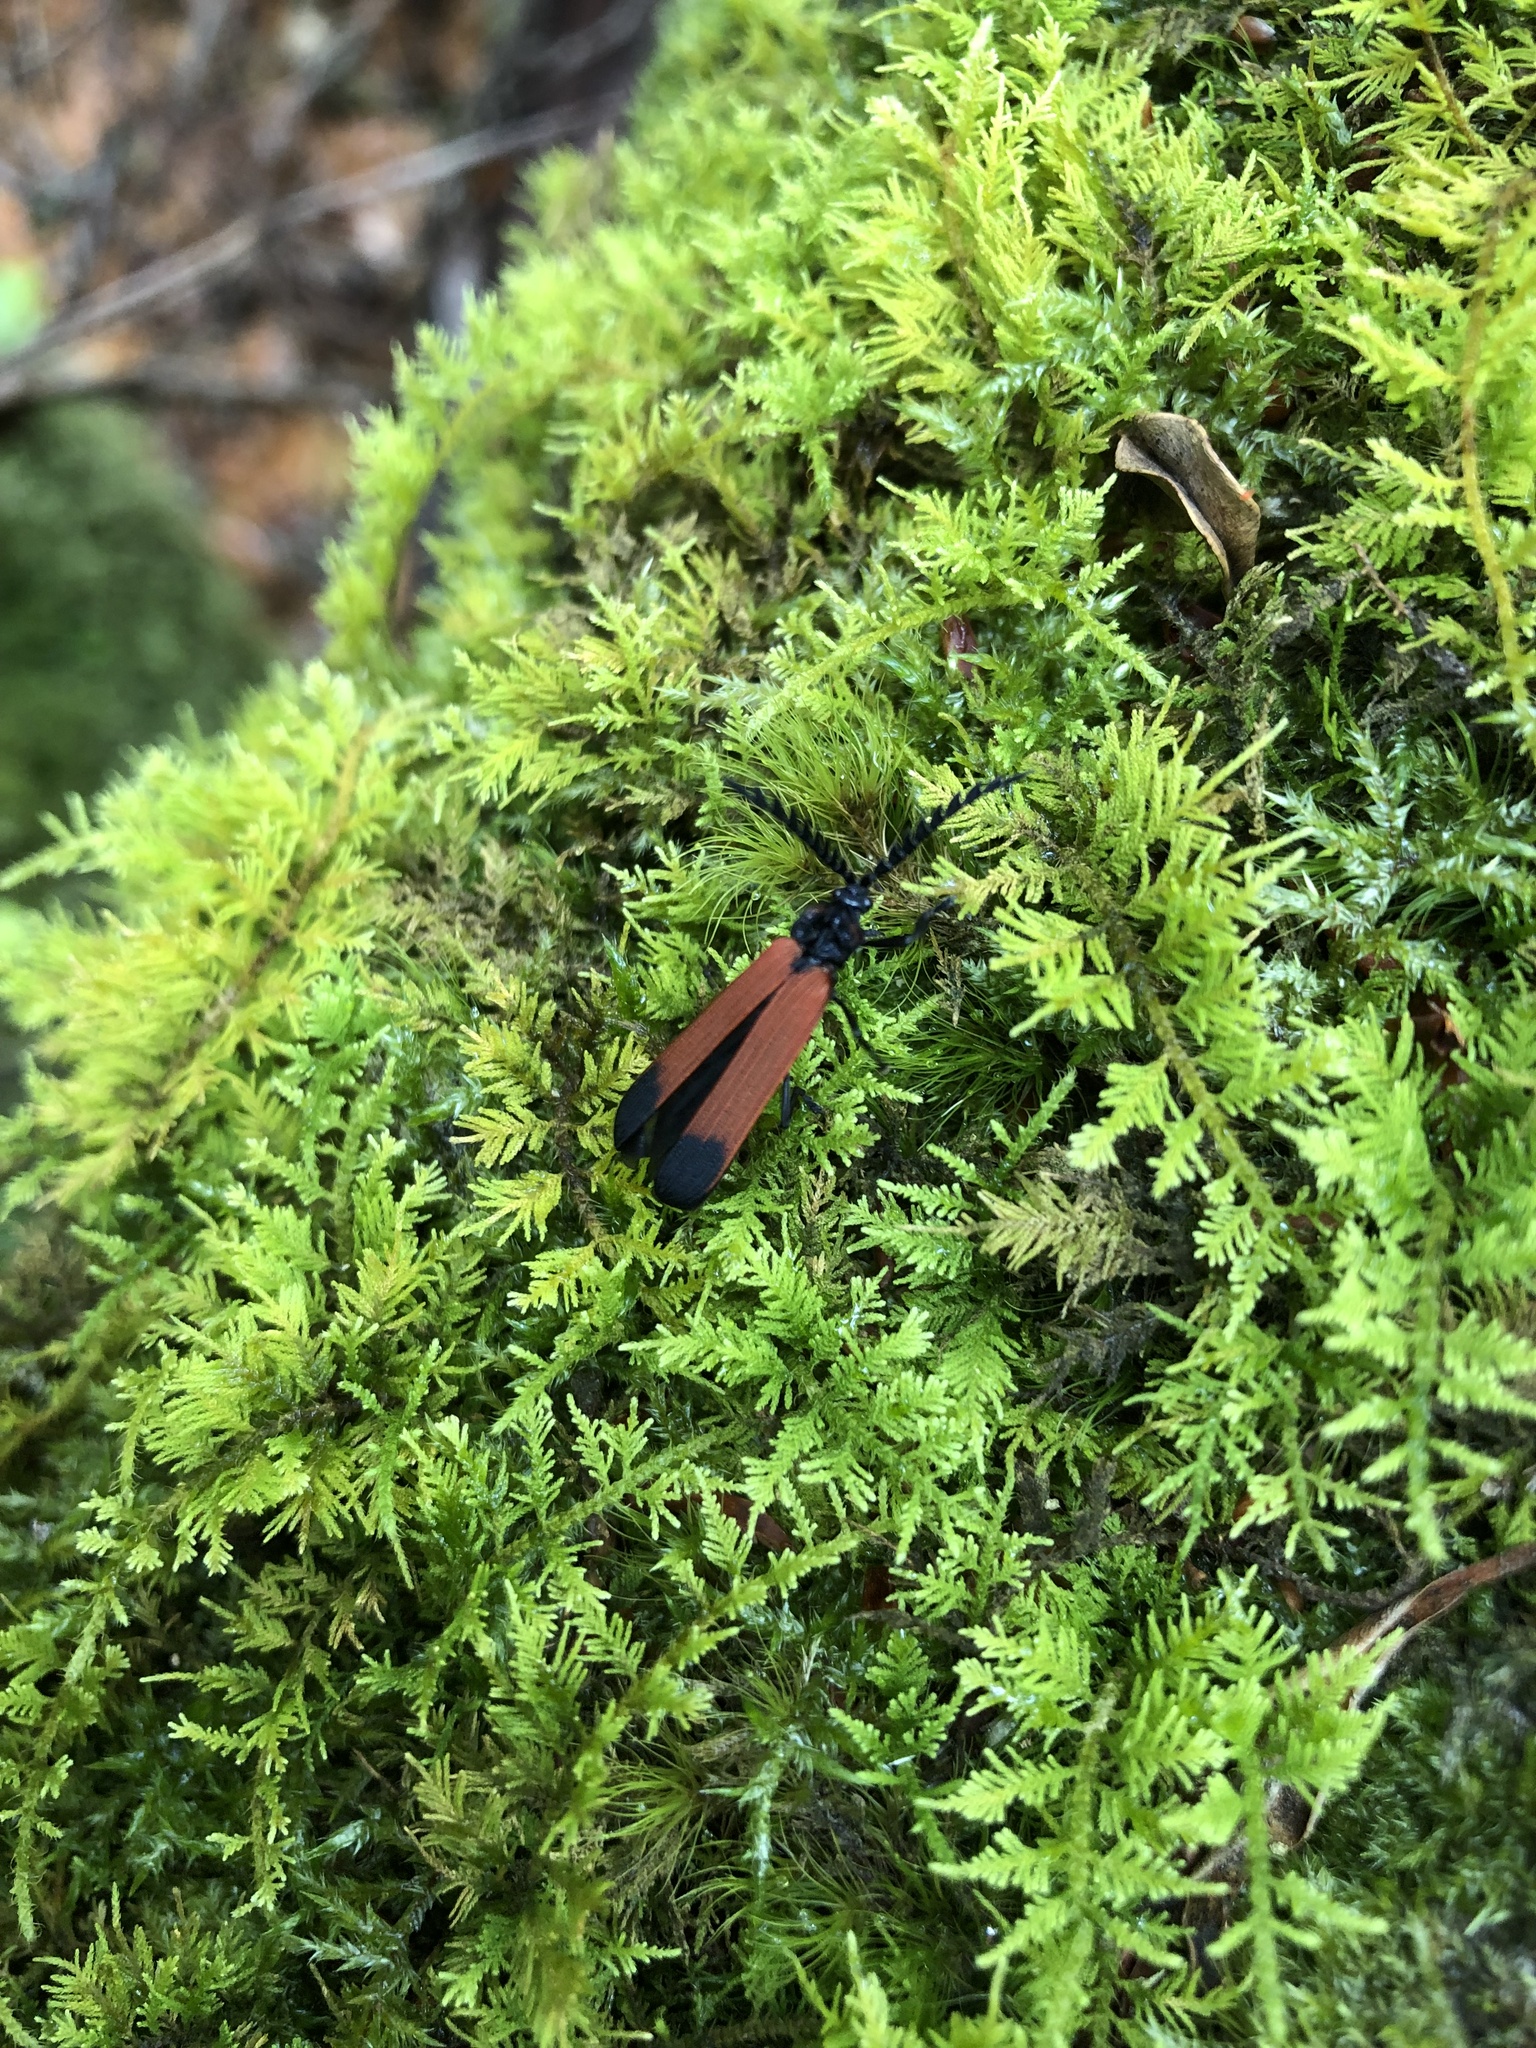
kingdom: Plantae
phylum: Bryophyta
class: Bryopsida
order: Hypnales
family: Thuidiaceae
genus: Thuidium
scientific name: Thuidium delicatulum
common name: Delicate fern moss
